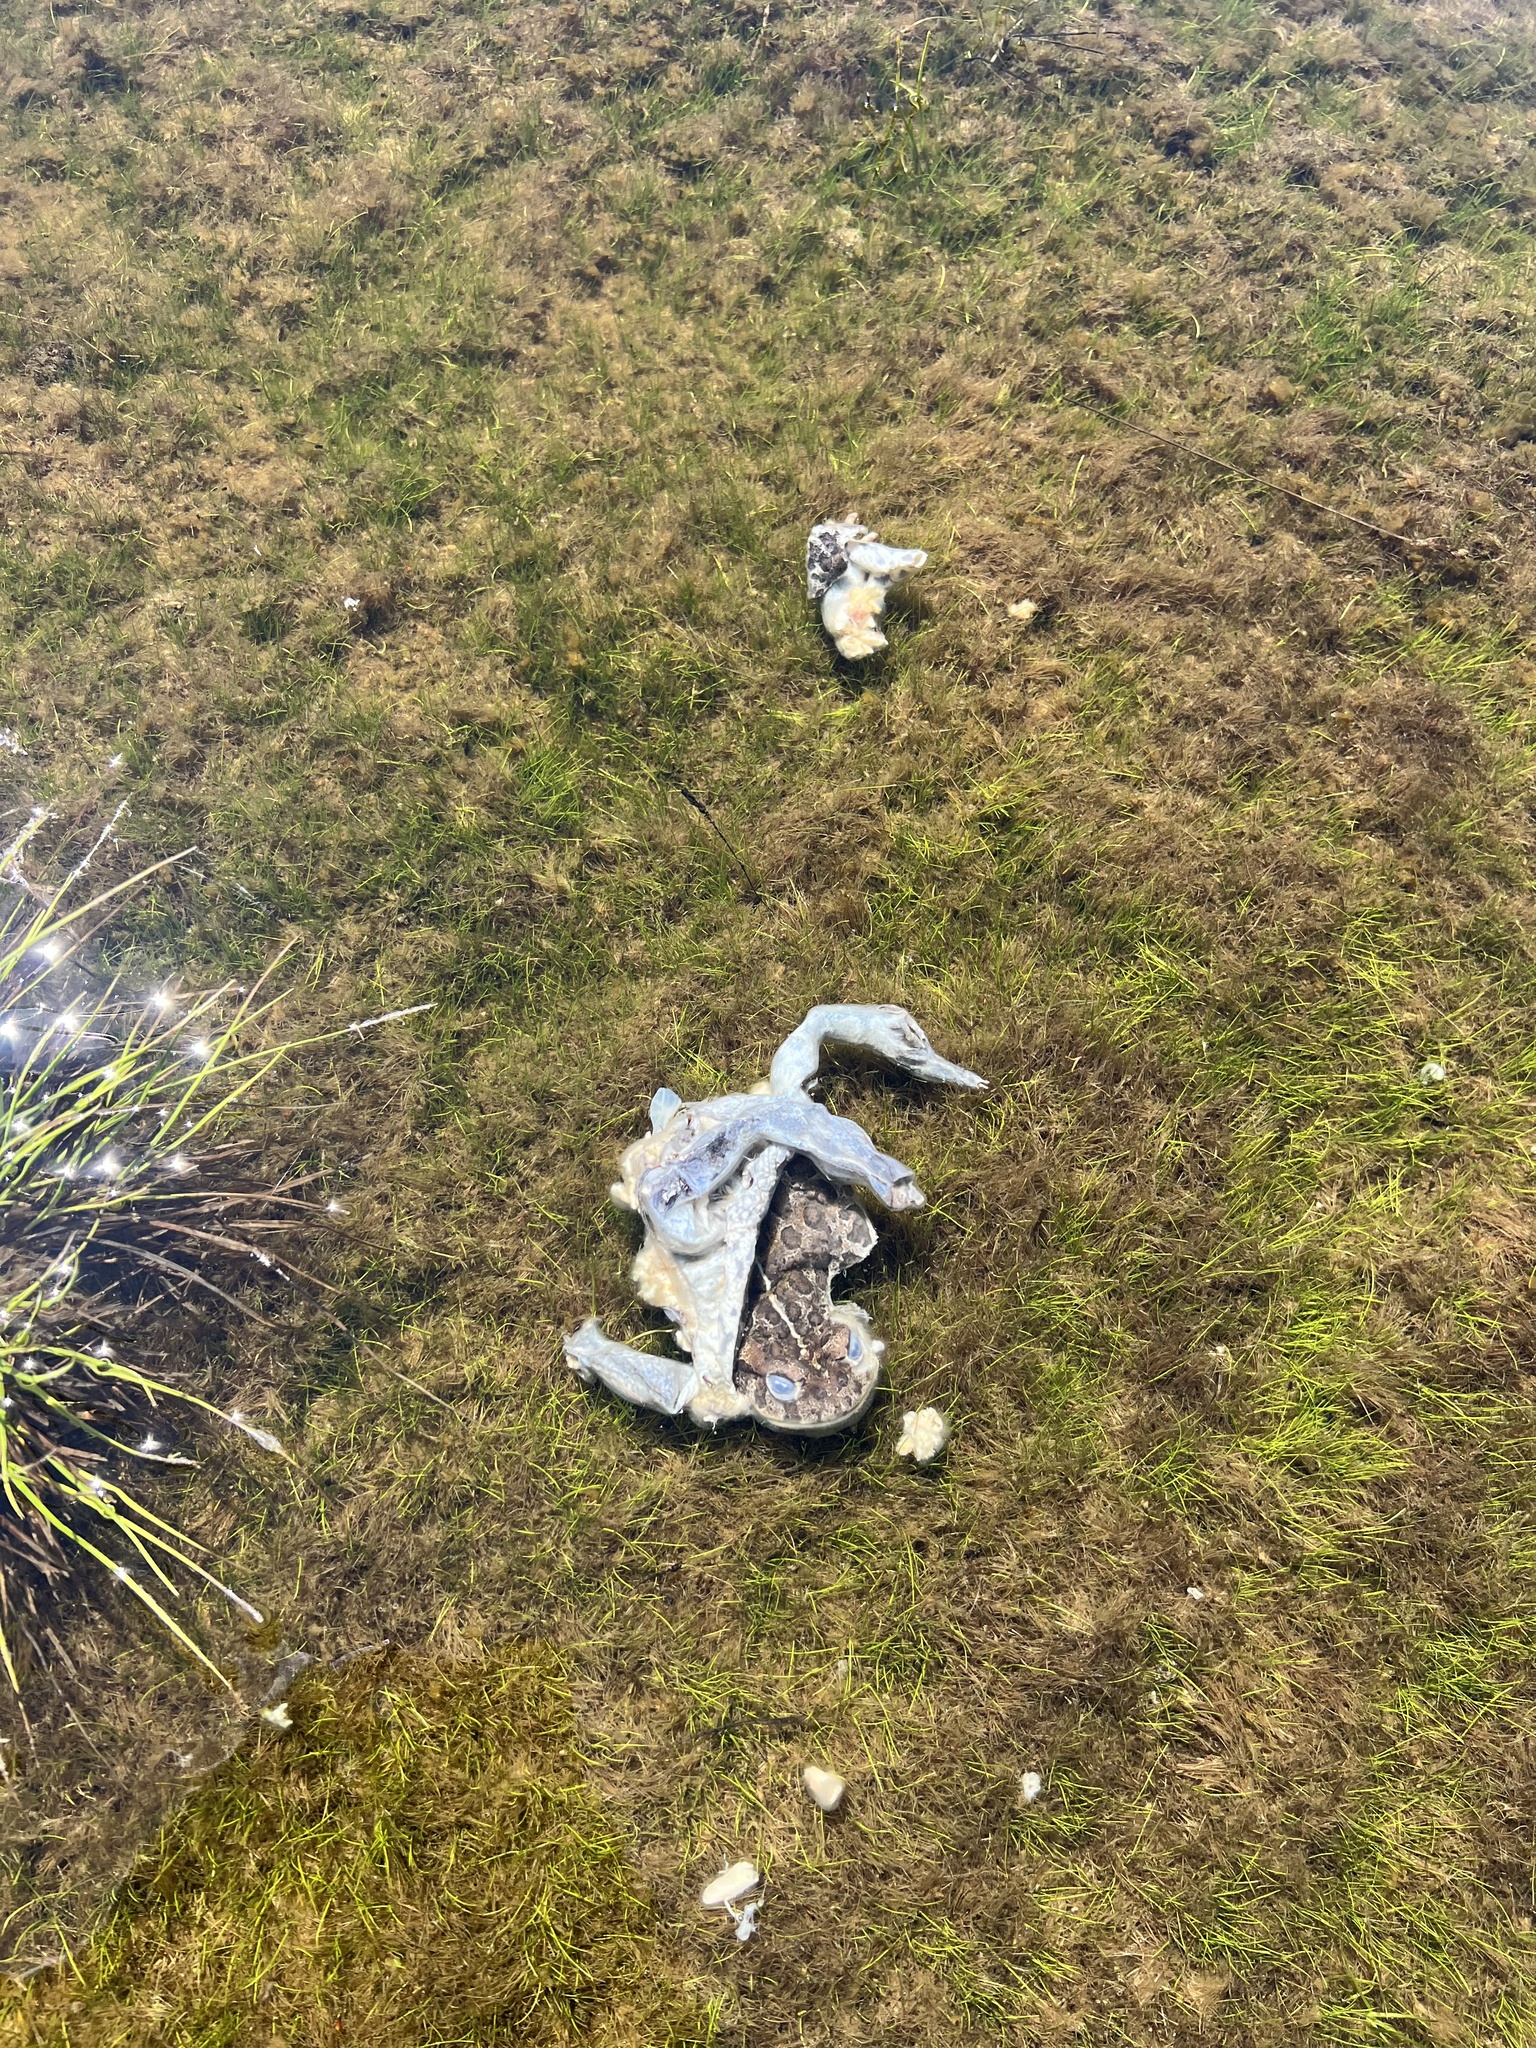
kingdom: Animalia
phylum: Chordata
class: Amphibia
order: Anura
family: Bufonidae
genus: Anaxyrus
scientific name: Anaxyrus boreas
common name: Western toad
